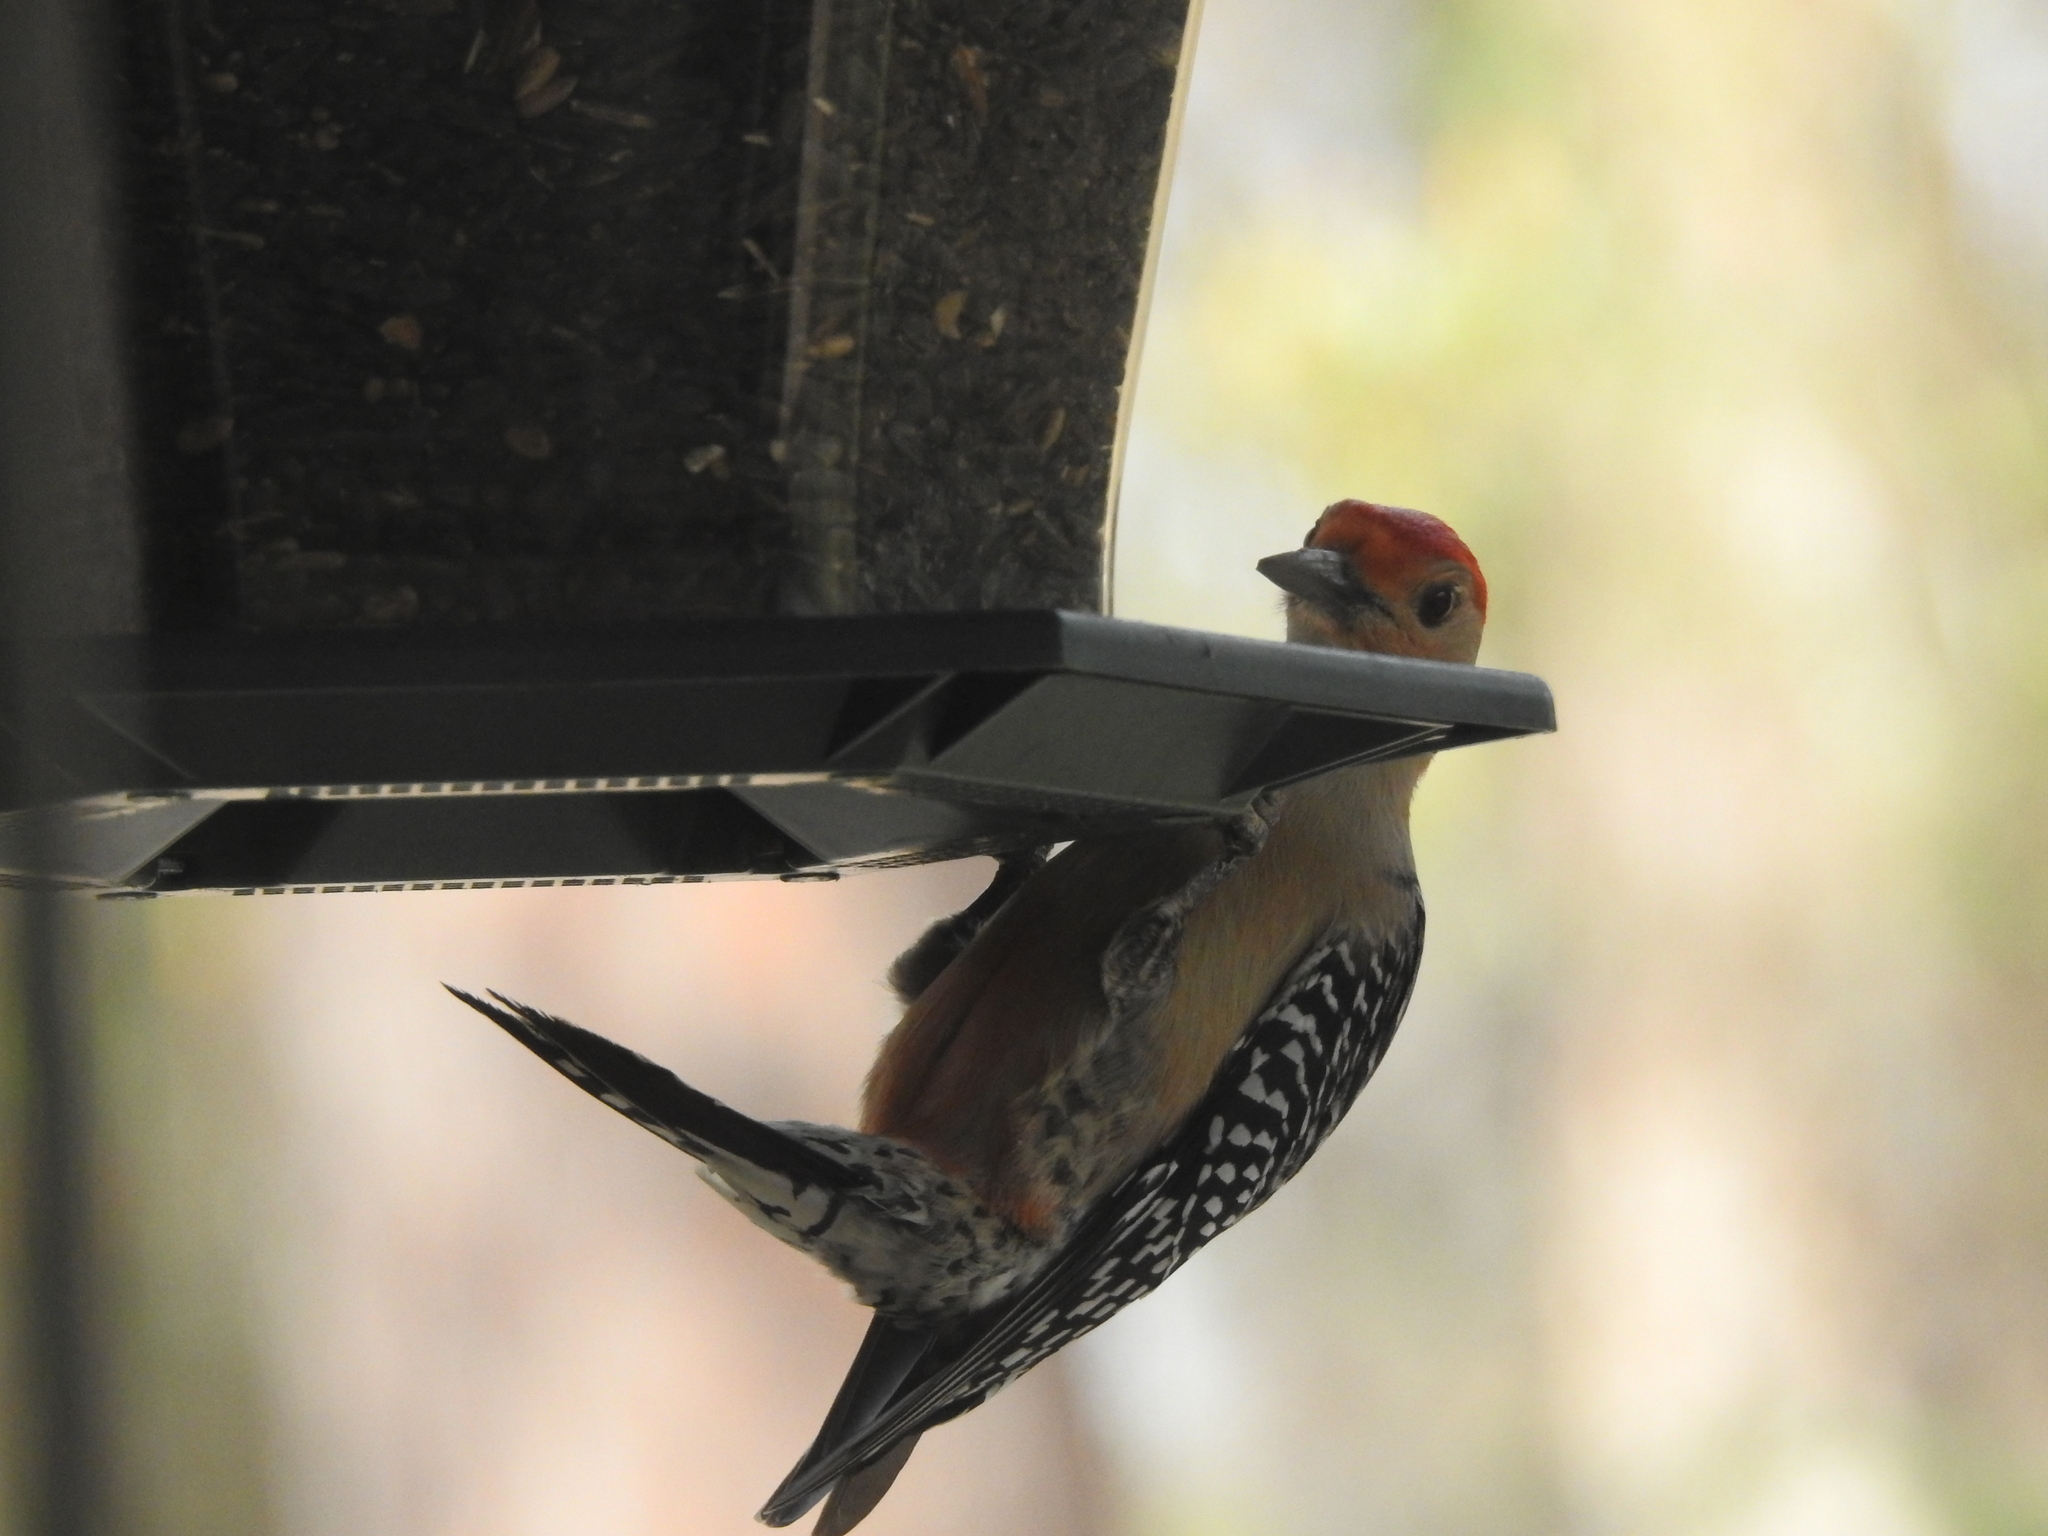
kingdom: Animalia
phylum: Chordata
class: Aves
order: Piciformes
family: Picidae
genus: Melanerpes
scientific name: Melanerpes carolinus
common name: Red-bellied woodpecker
